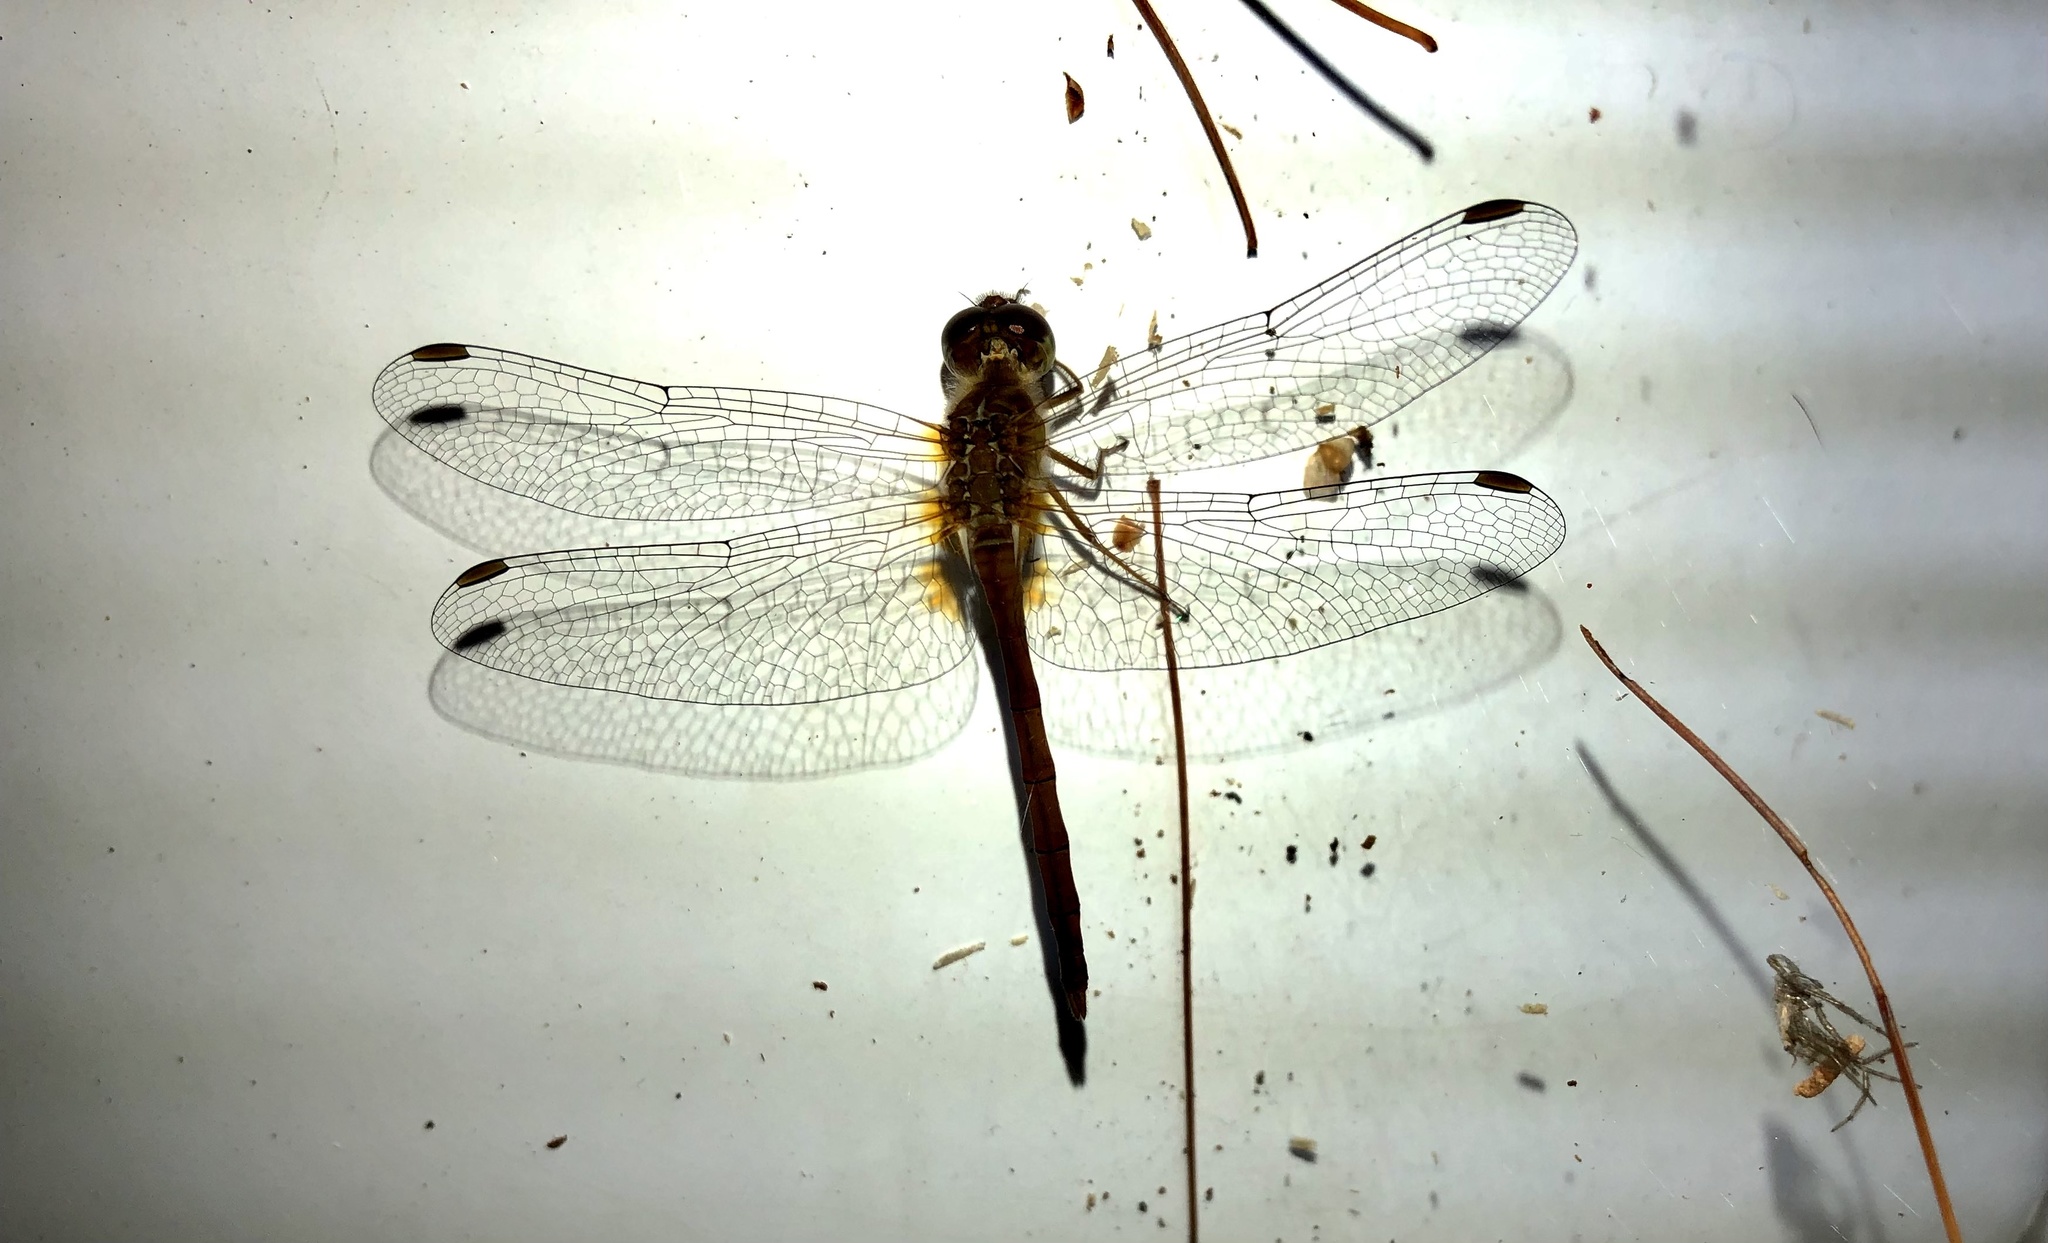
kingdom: Animalia
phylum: Arthropoda
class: Insecta
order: Odonata
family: Libellulidae
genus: Sympetrum
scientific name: Sympetrum vicinum
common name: Autumn meadowhawk
